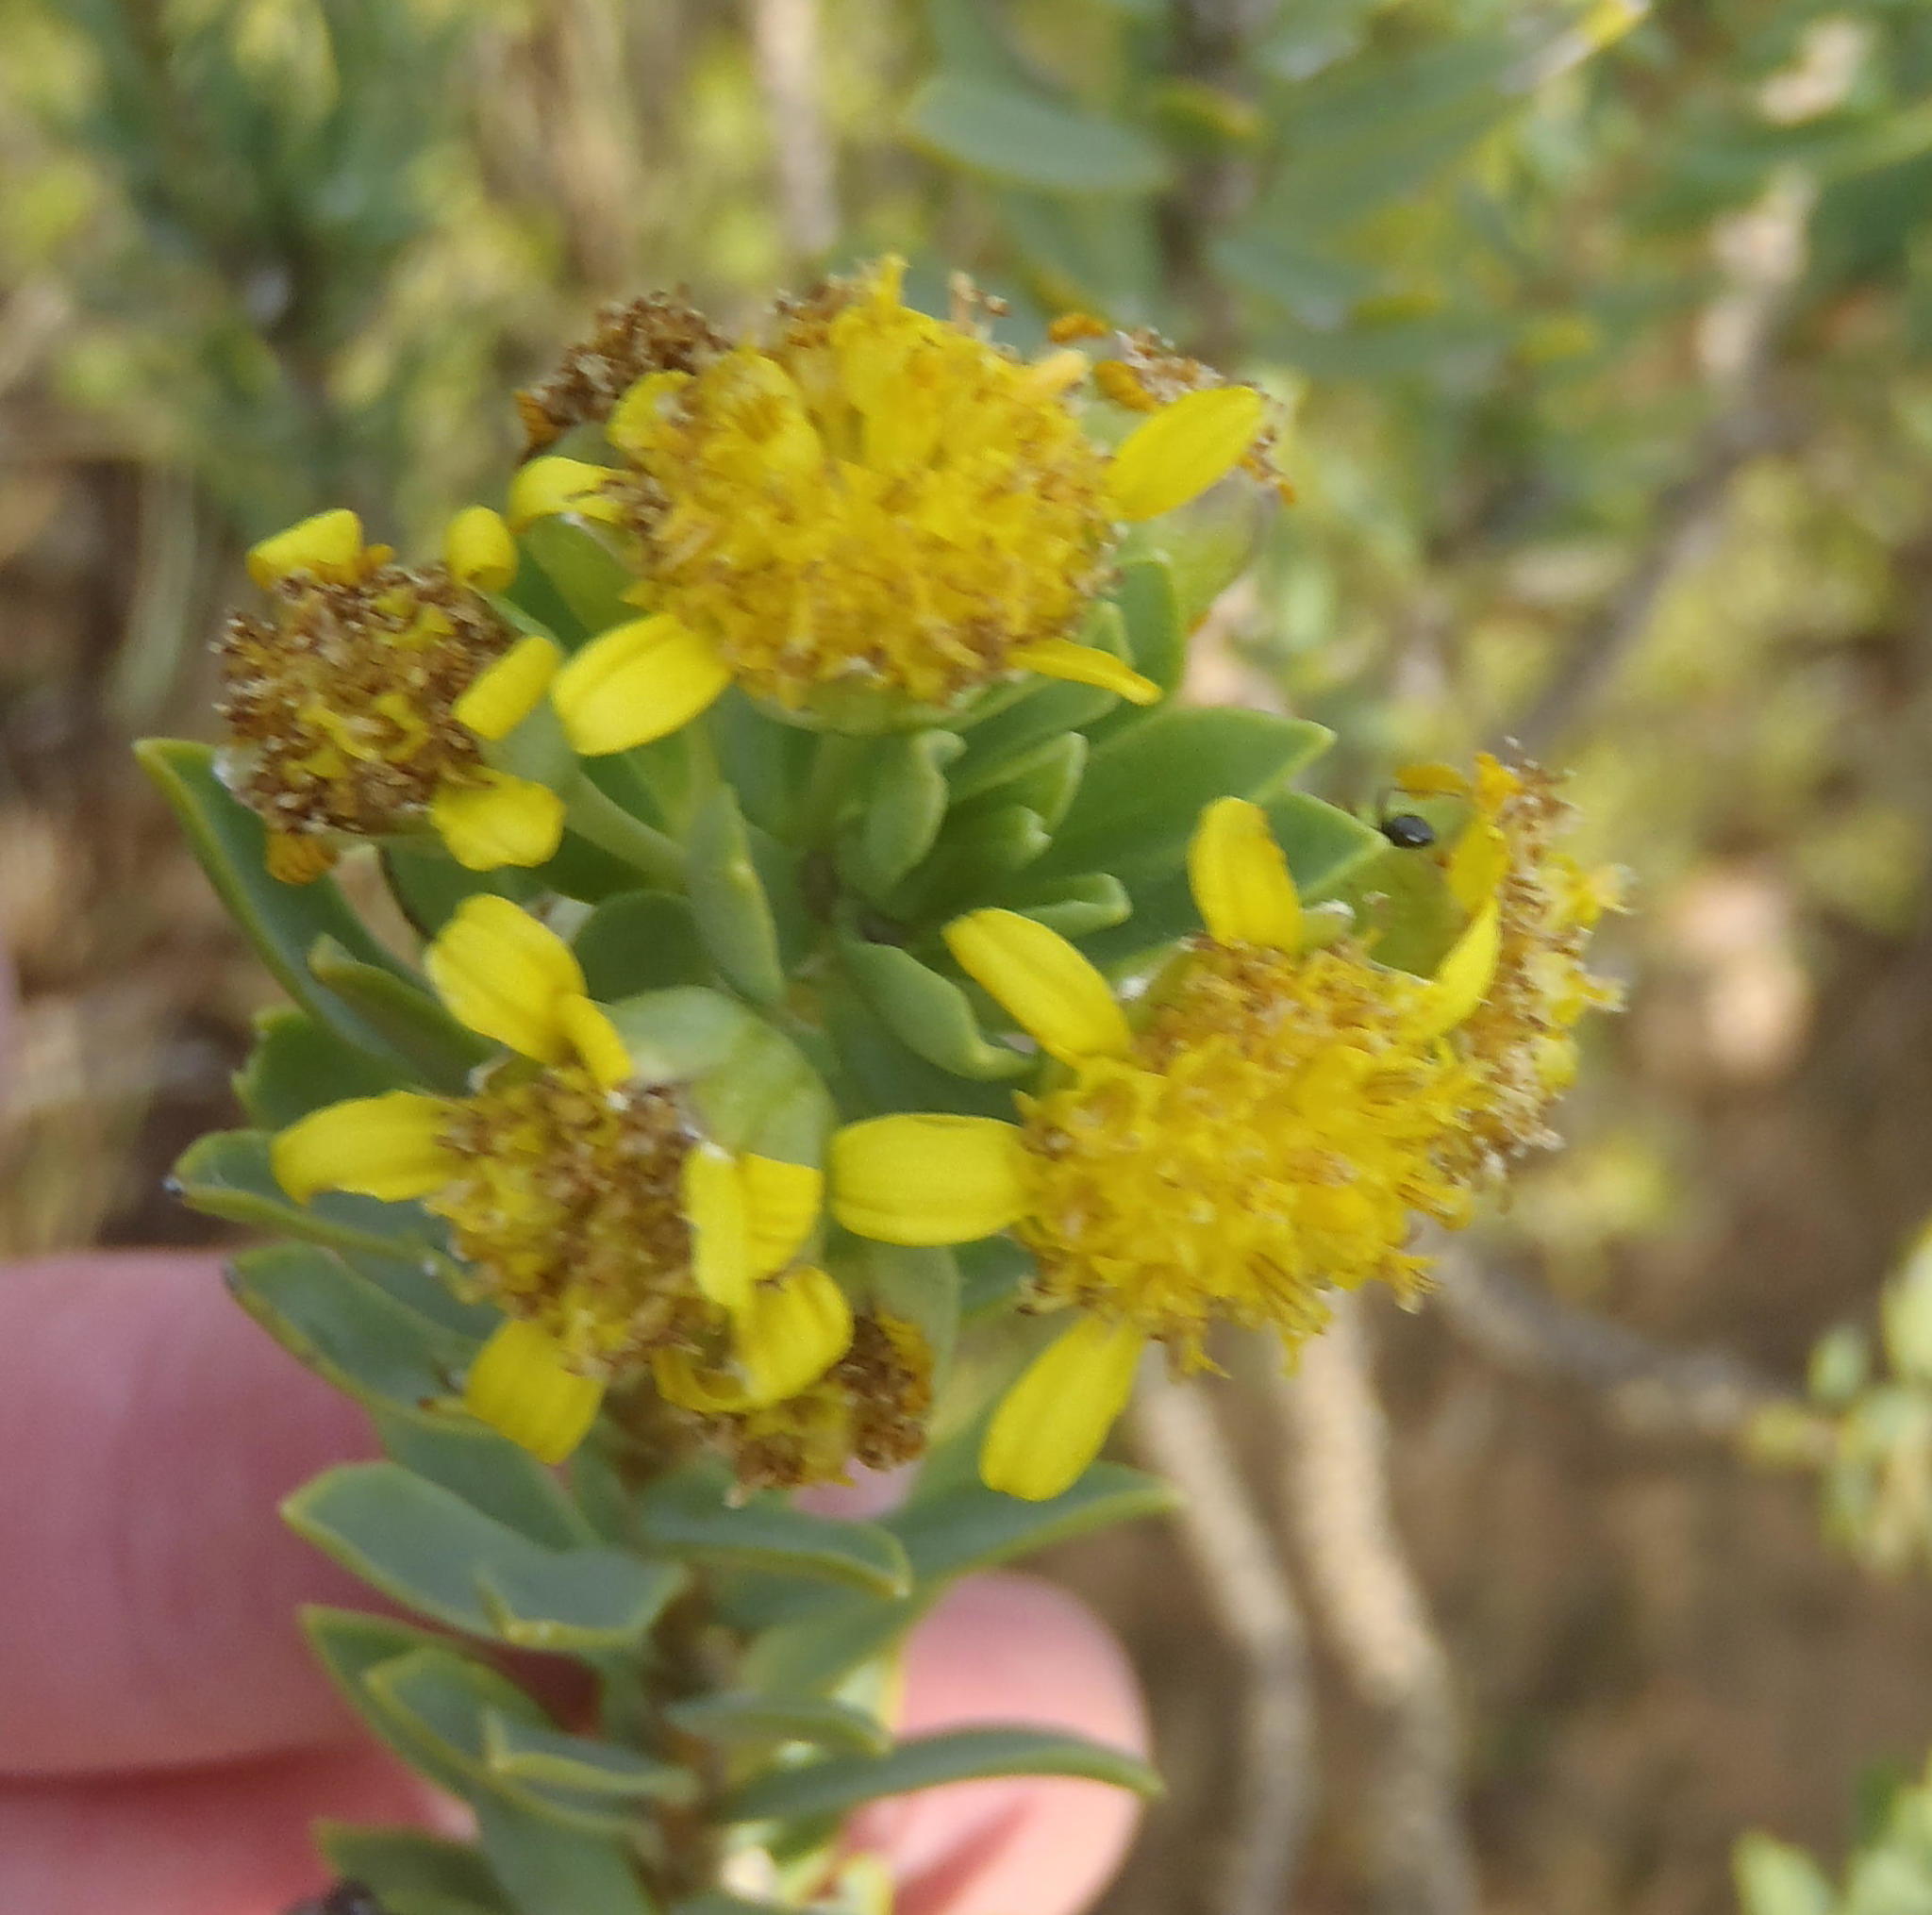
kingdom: Plantae
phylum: Tracheophyta
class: Magnoliopsida
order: Asterales
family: Asteraceae
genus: Euryops
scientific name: Euryops lateriflorus
